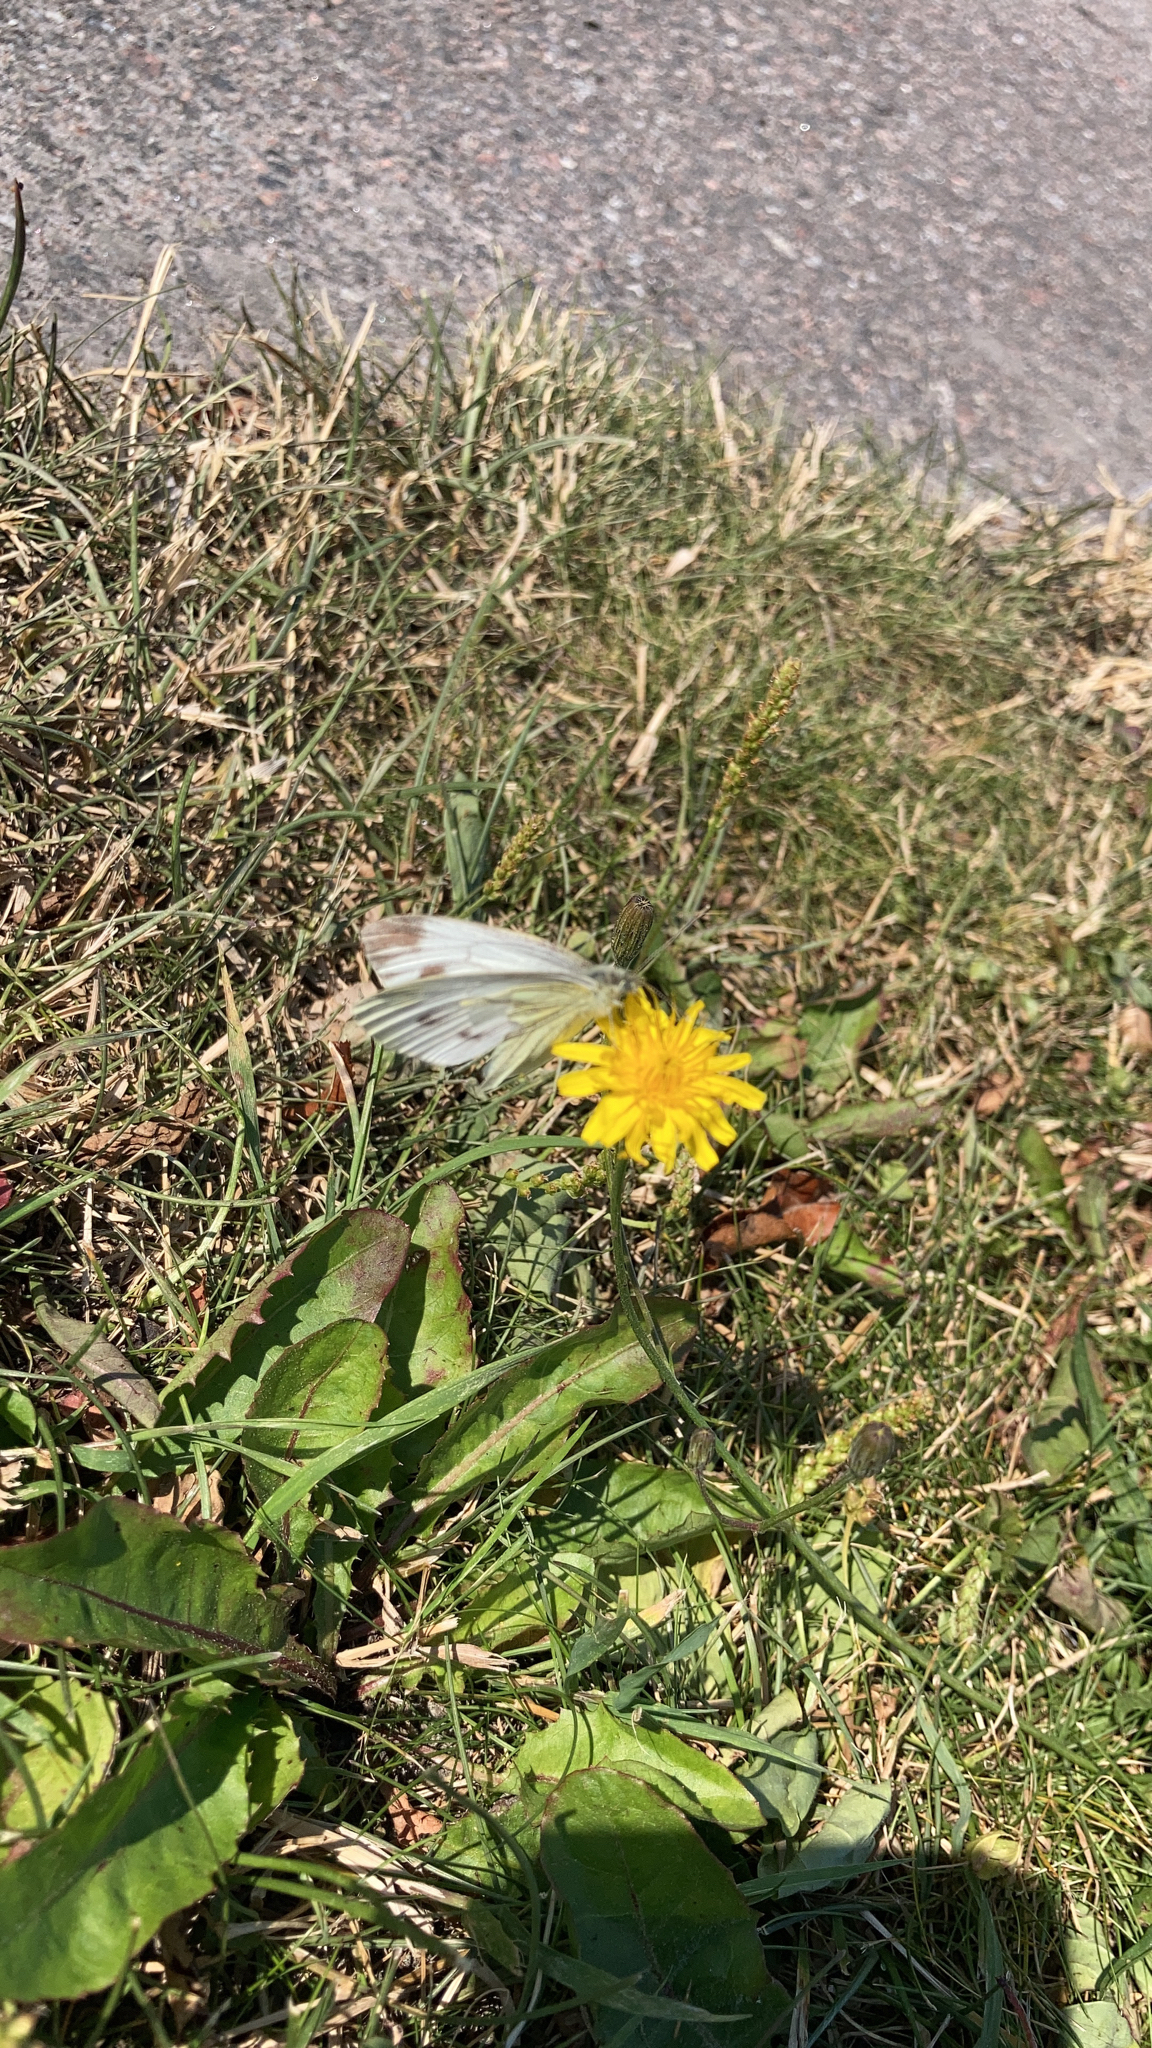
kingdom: Animalia
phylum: Arthropoda
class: Insecta
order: Lepidoptera
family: Pieridae
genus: Pieris
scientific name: Pieris napi
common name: Green-veined white
